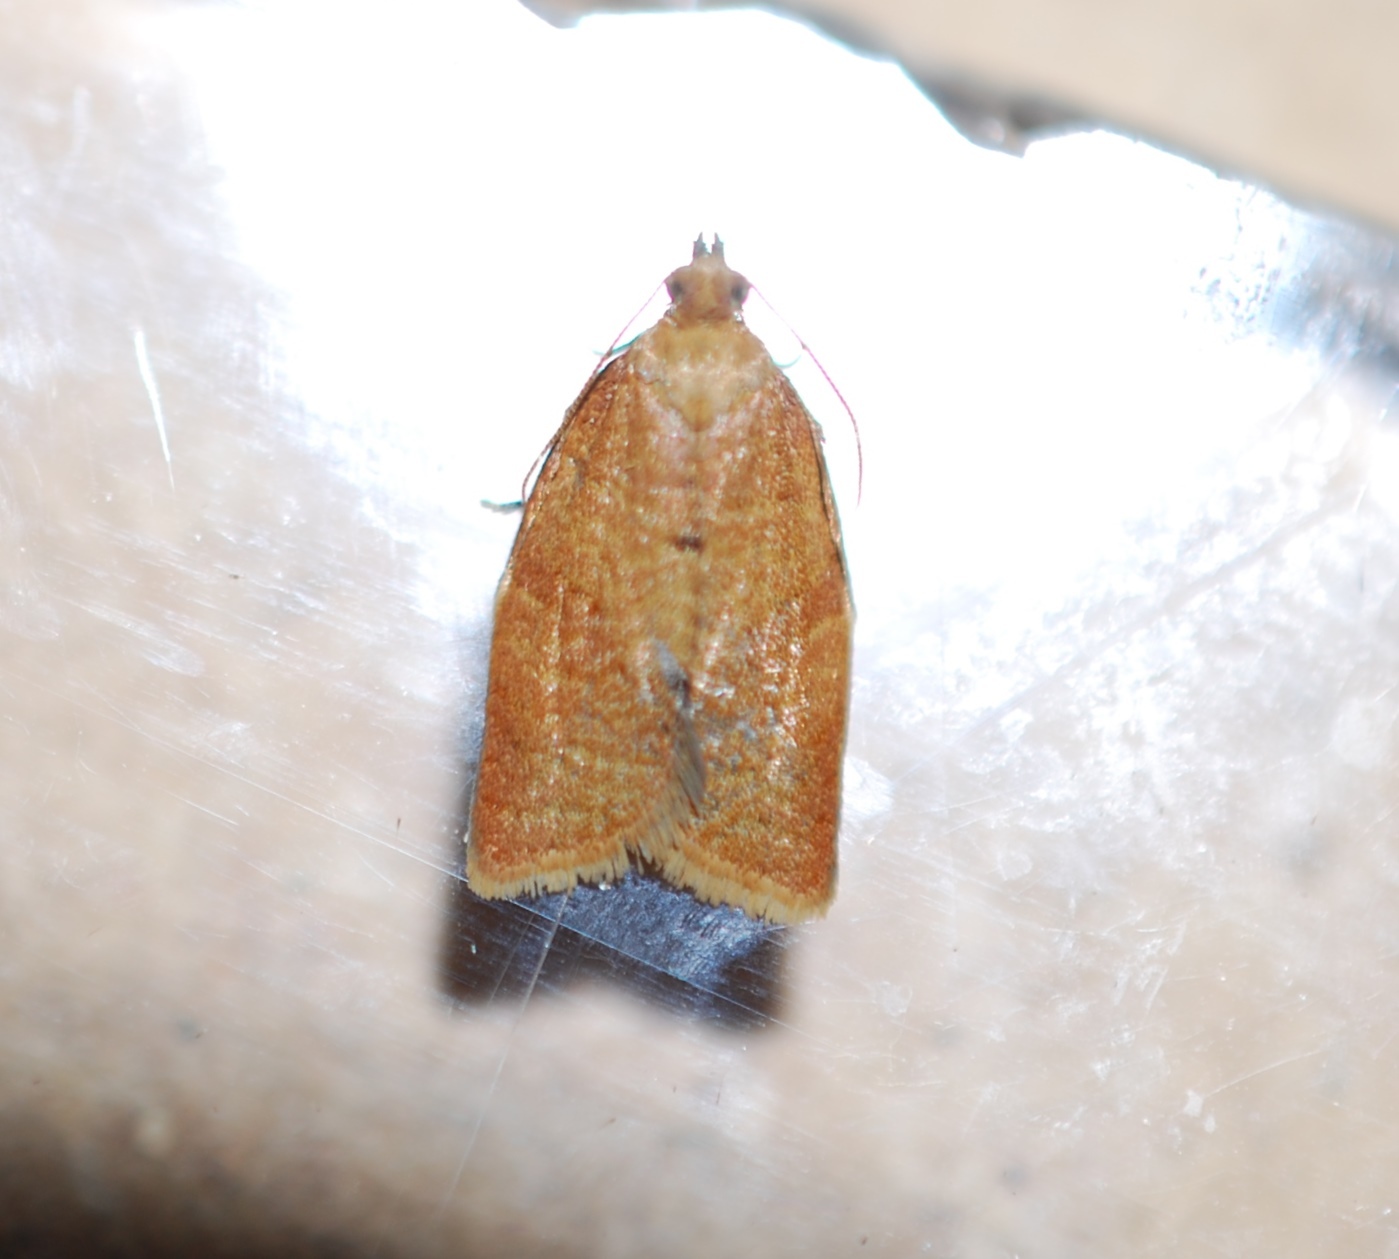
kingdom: Animalia
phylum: Arthropoda
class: Insecta
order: Lepidoptera
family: Tortricidae
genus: Clepsis
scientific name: Clepsis consimilana
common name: Privet tortrix
